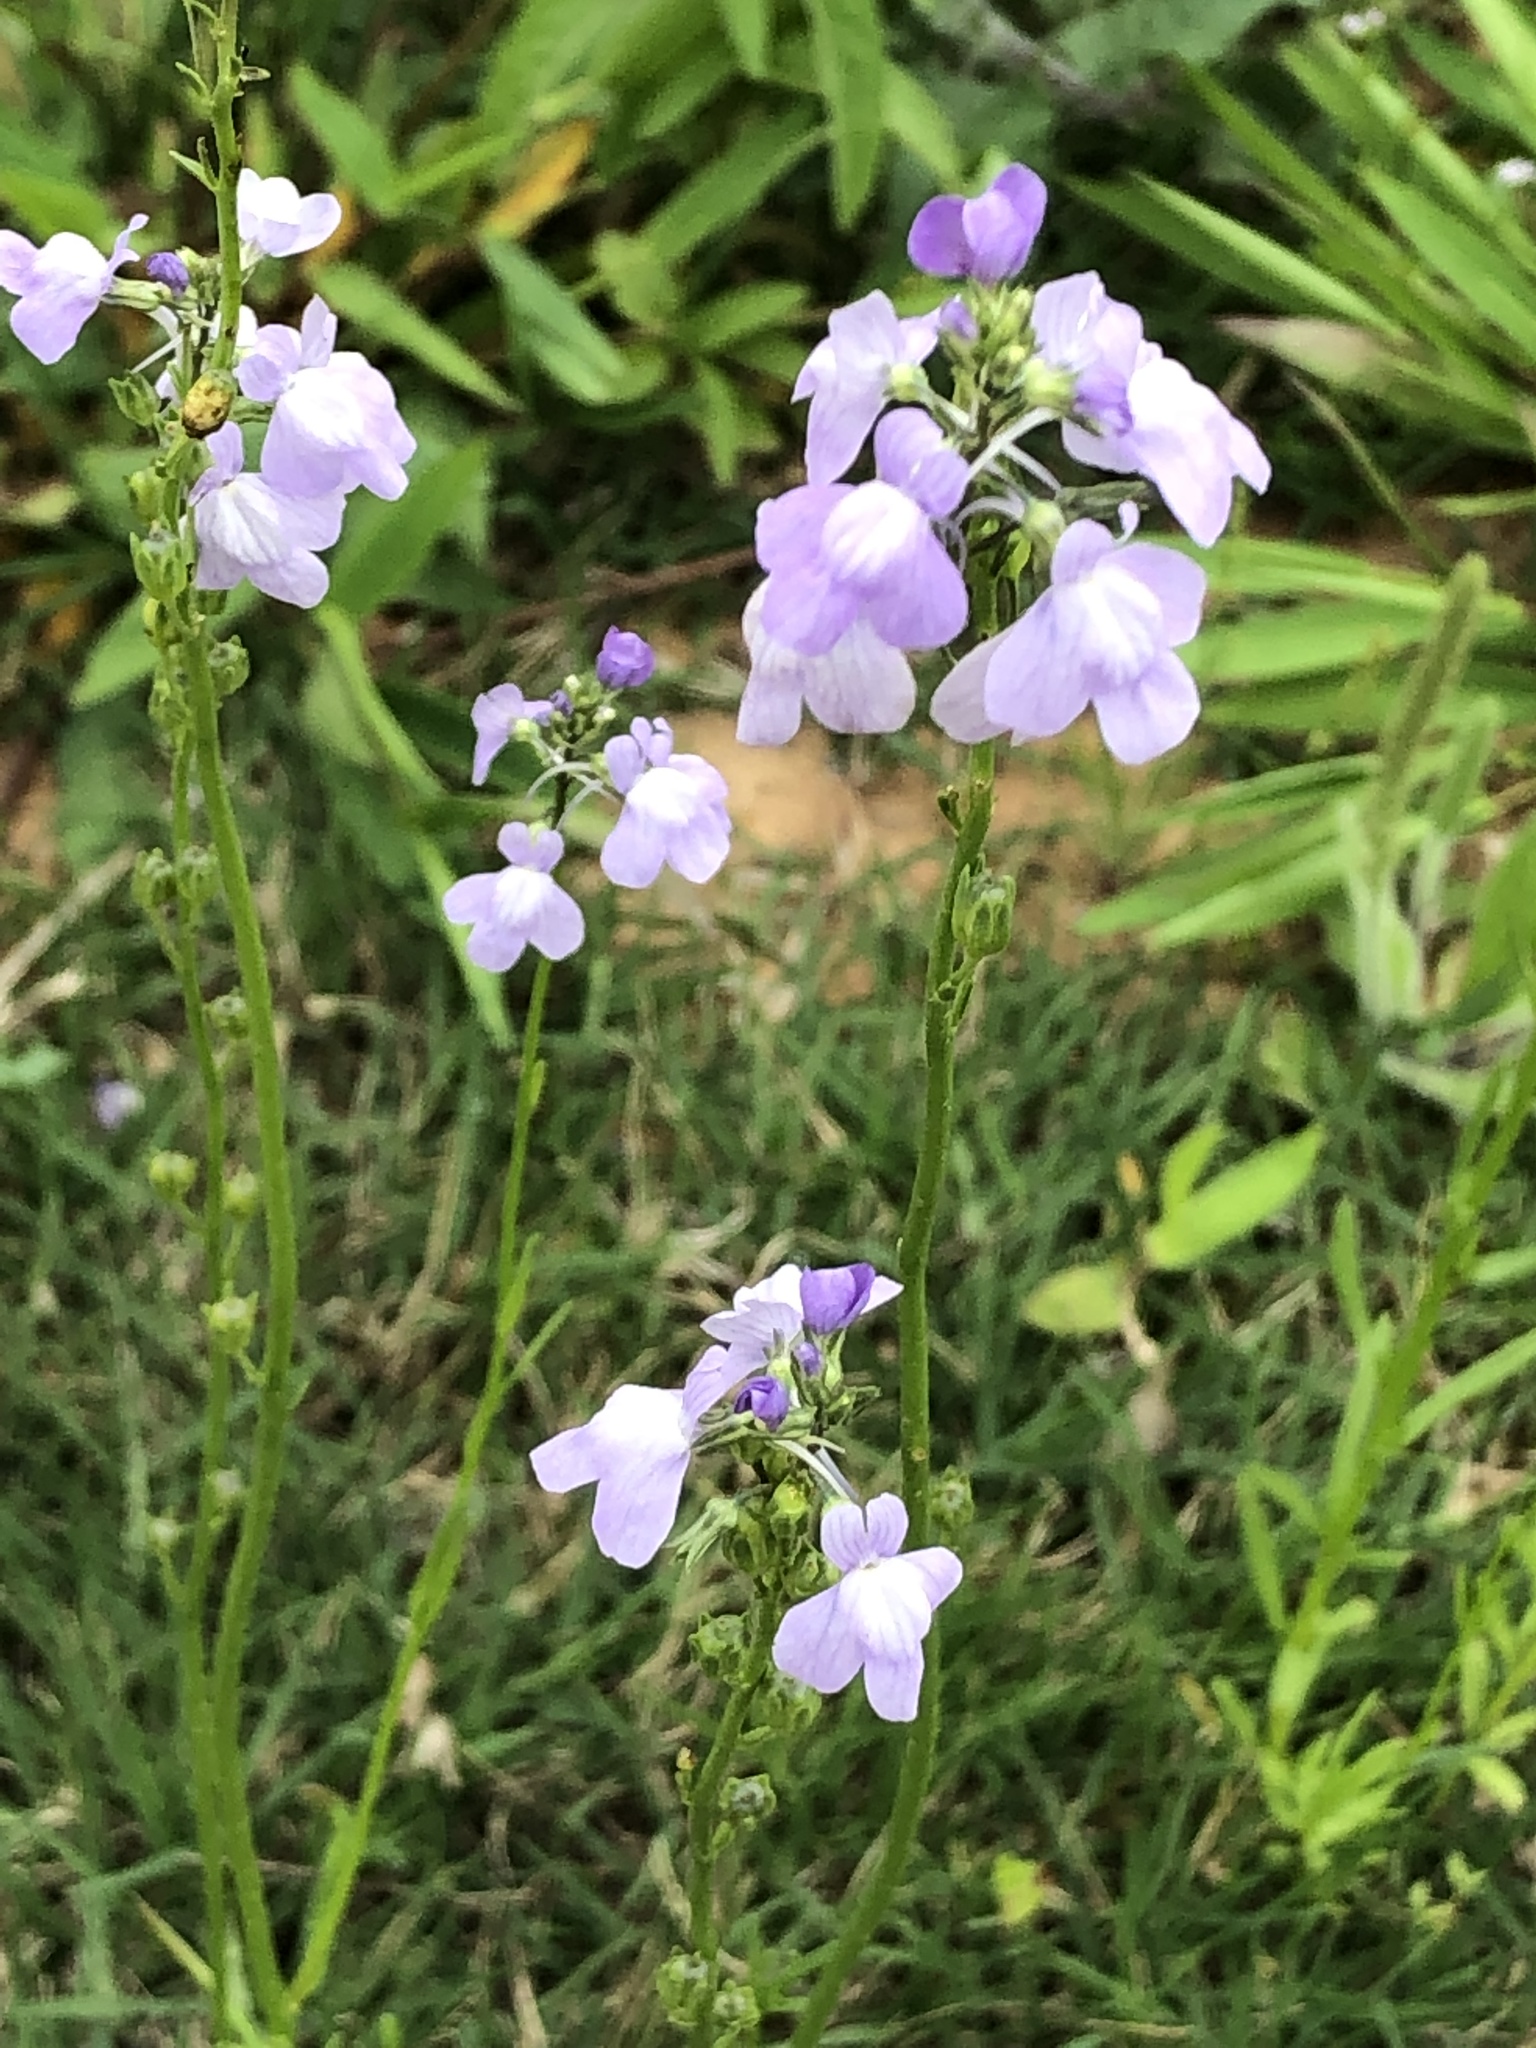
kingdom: Plantae
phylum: Tracheophyta
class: Magnoliopsida
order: Lamiales
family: Plantaginaceae
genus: Nuttallanthus
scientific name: Nuttallanthus texanus
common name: Texas toadflax
